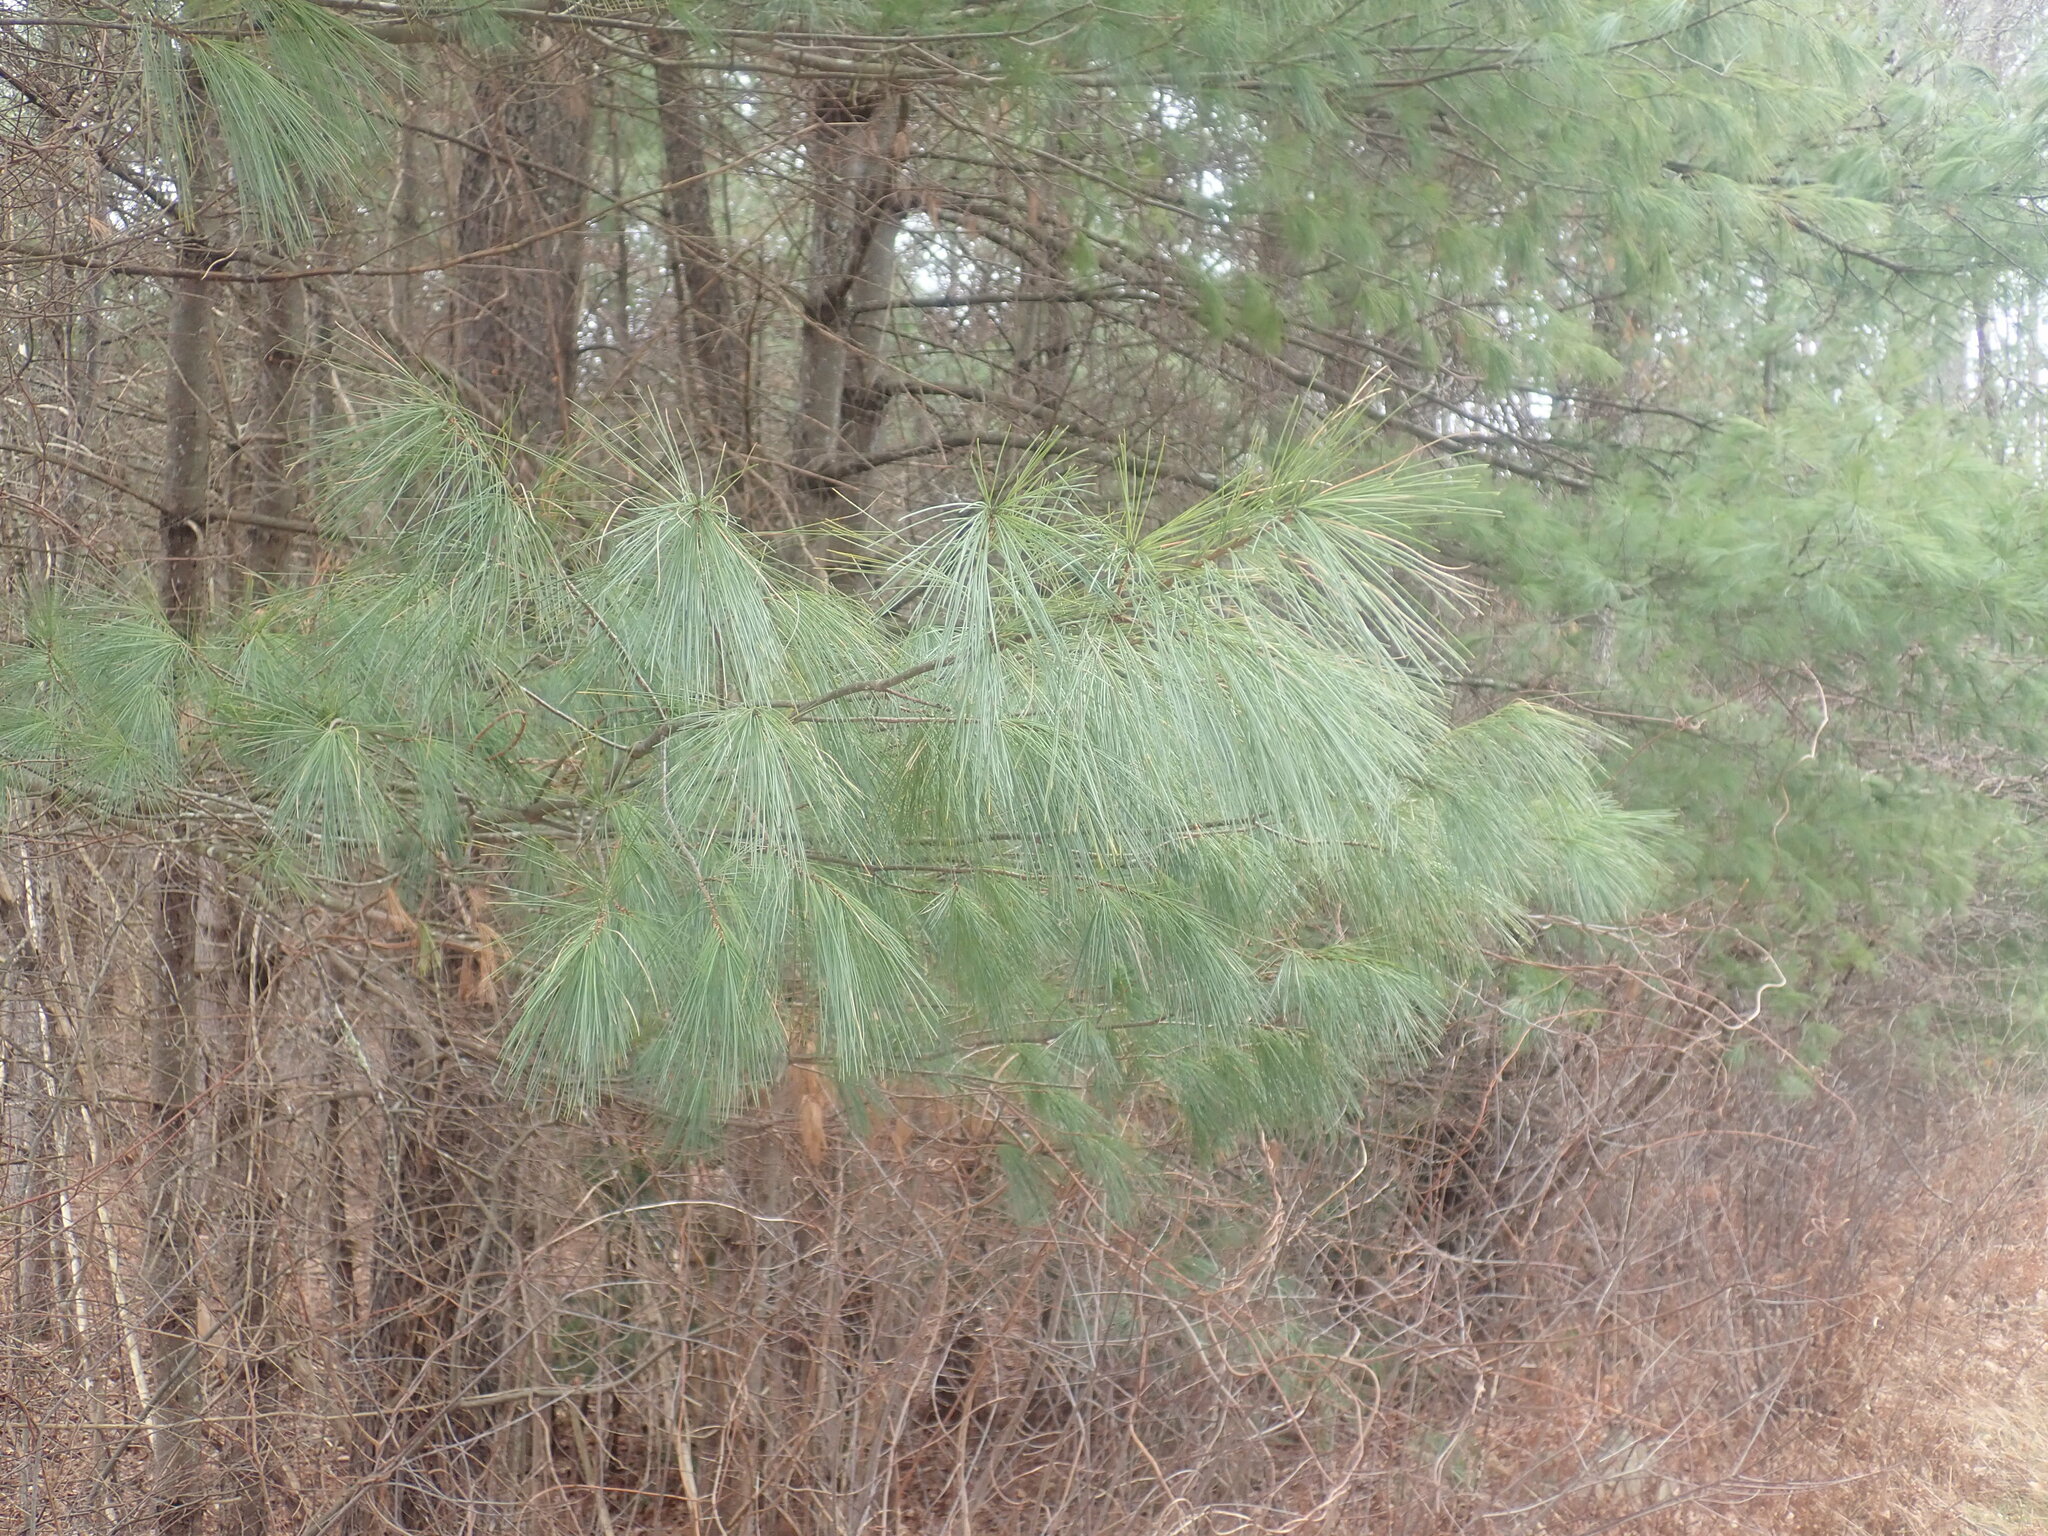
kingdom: Plantae
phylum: Tracheophyta
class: Pinopsida
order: Pinales
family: Pinaceae
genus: Pinus
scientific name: Pinus strobus
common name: Weymouth pine
